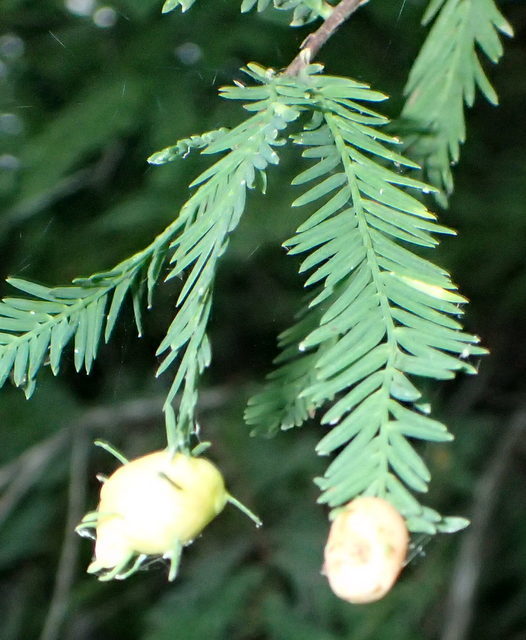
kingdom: Animalia
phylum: Arthropoda
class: Insecta
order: Diptera
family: Cecidomyiidae
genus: Taxodiomyia
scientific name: Taxodiomyia cupressiananassa
